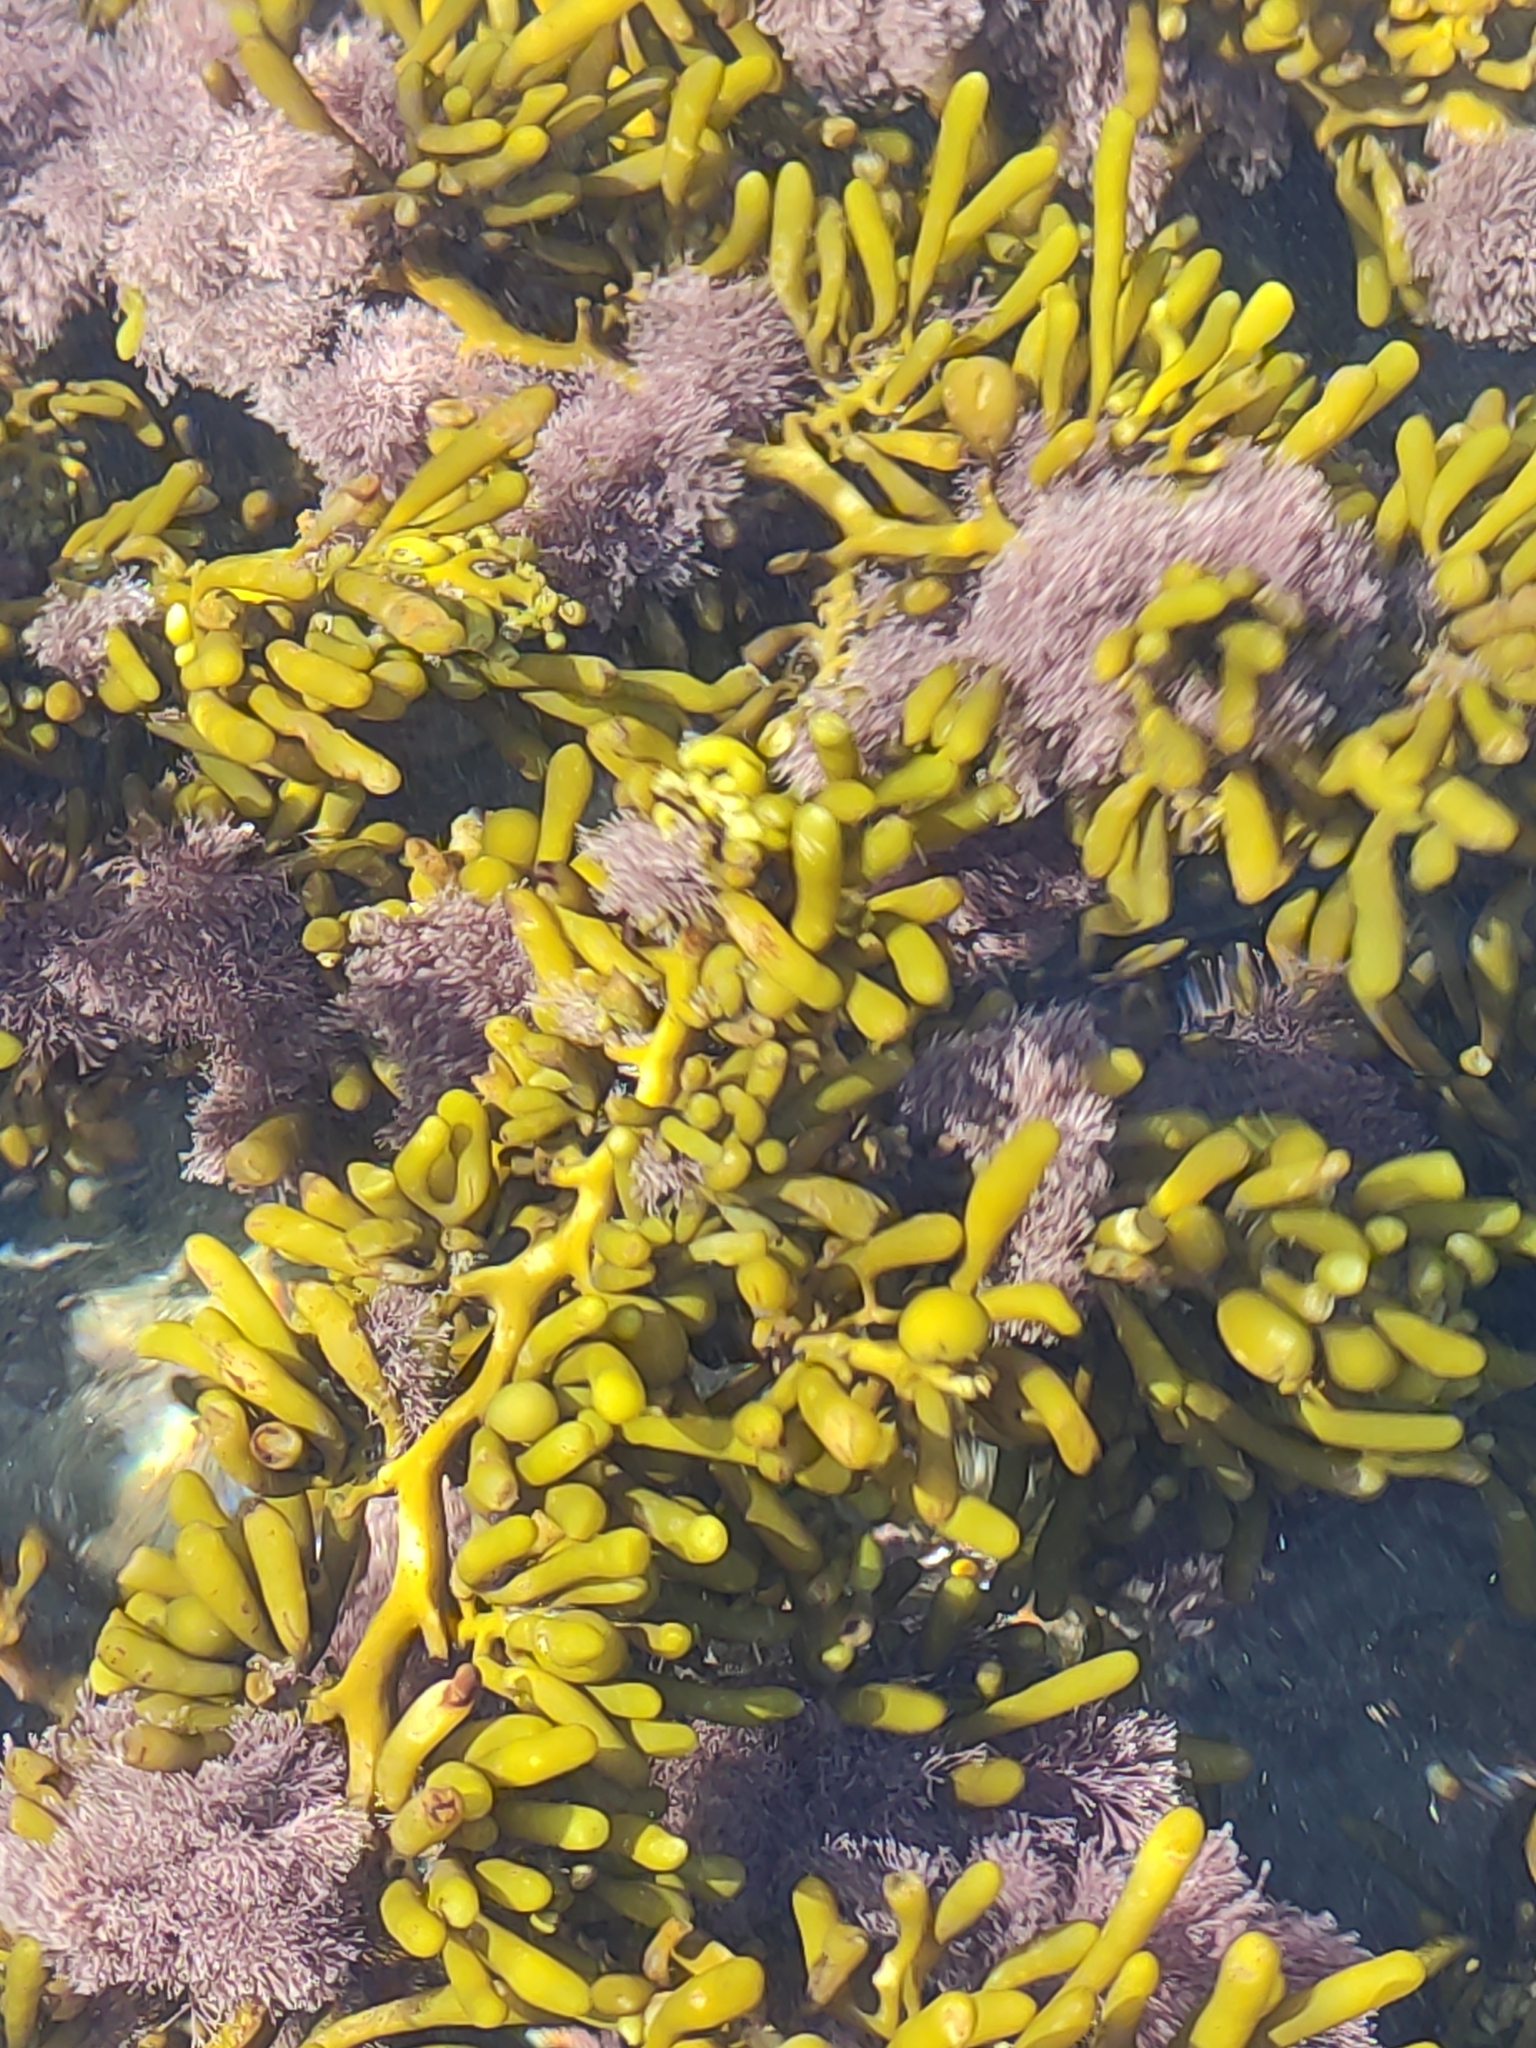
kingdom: Chromista
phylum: Ochrophyta
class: Phaeophyceae
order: Fucales
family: Sargassaceae
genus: Cystophora
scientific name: Cystophora torulosa
